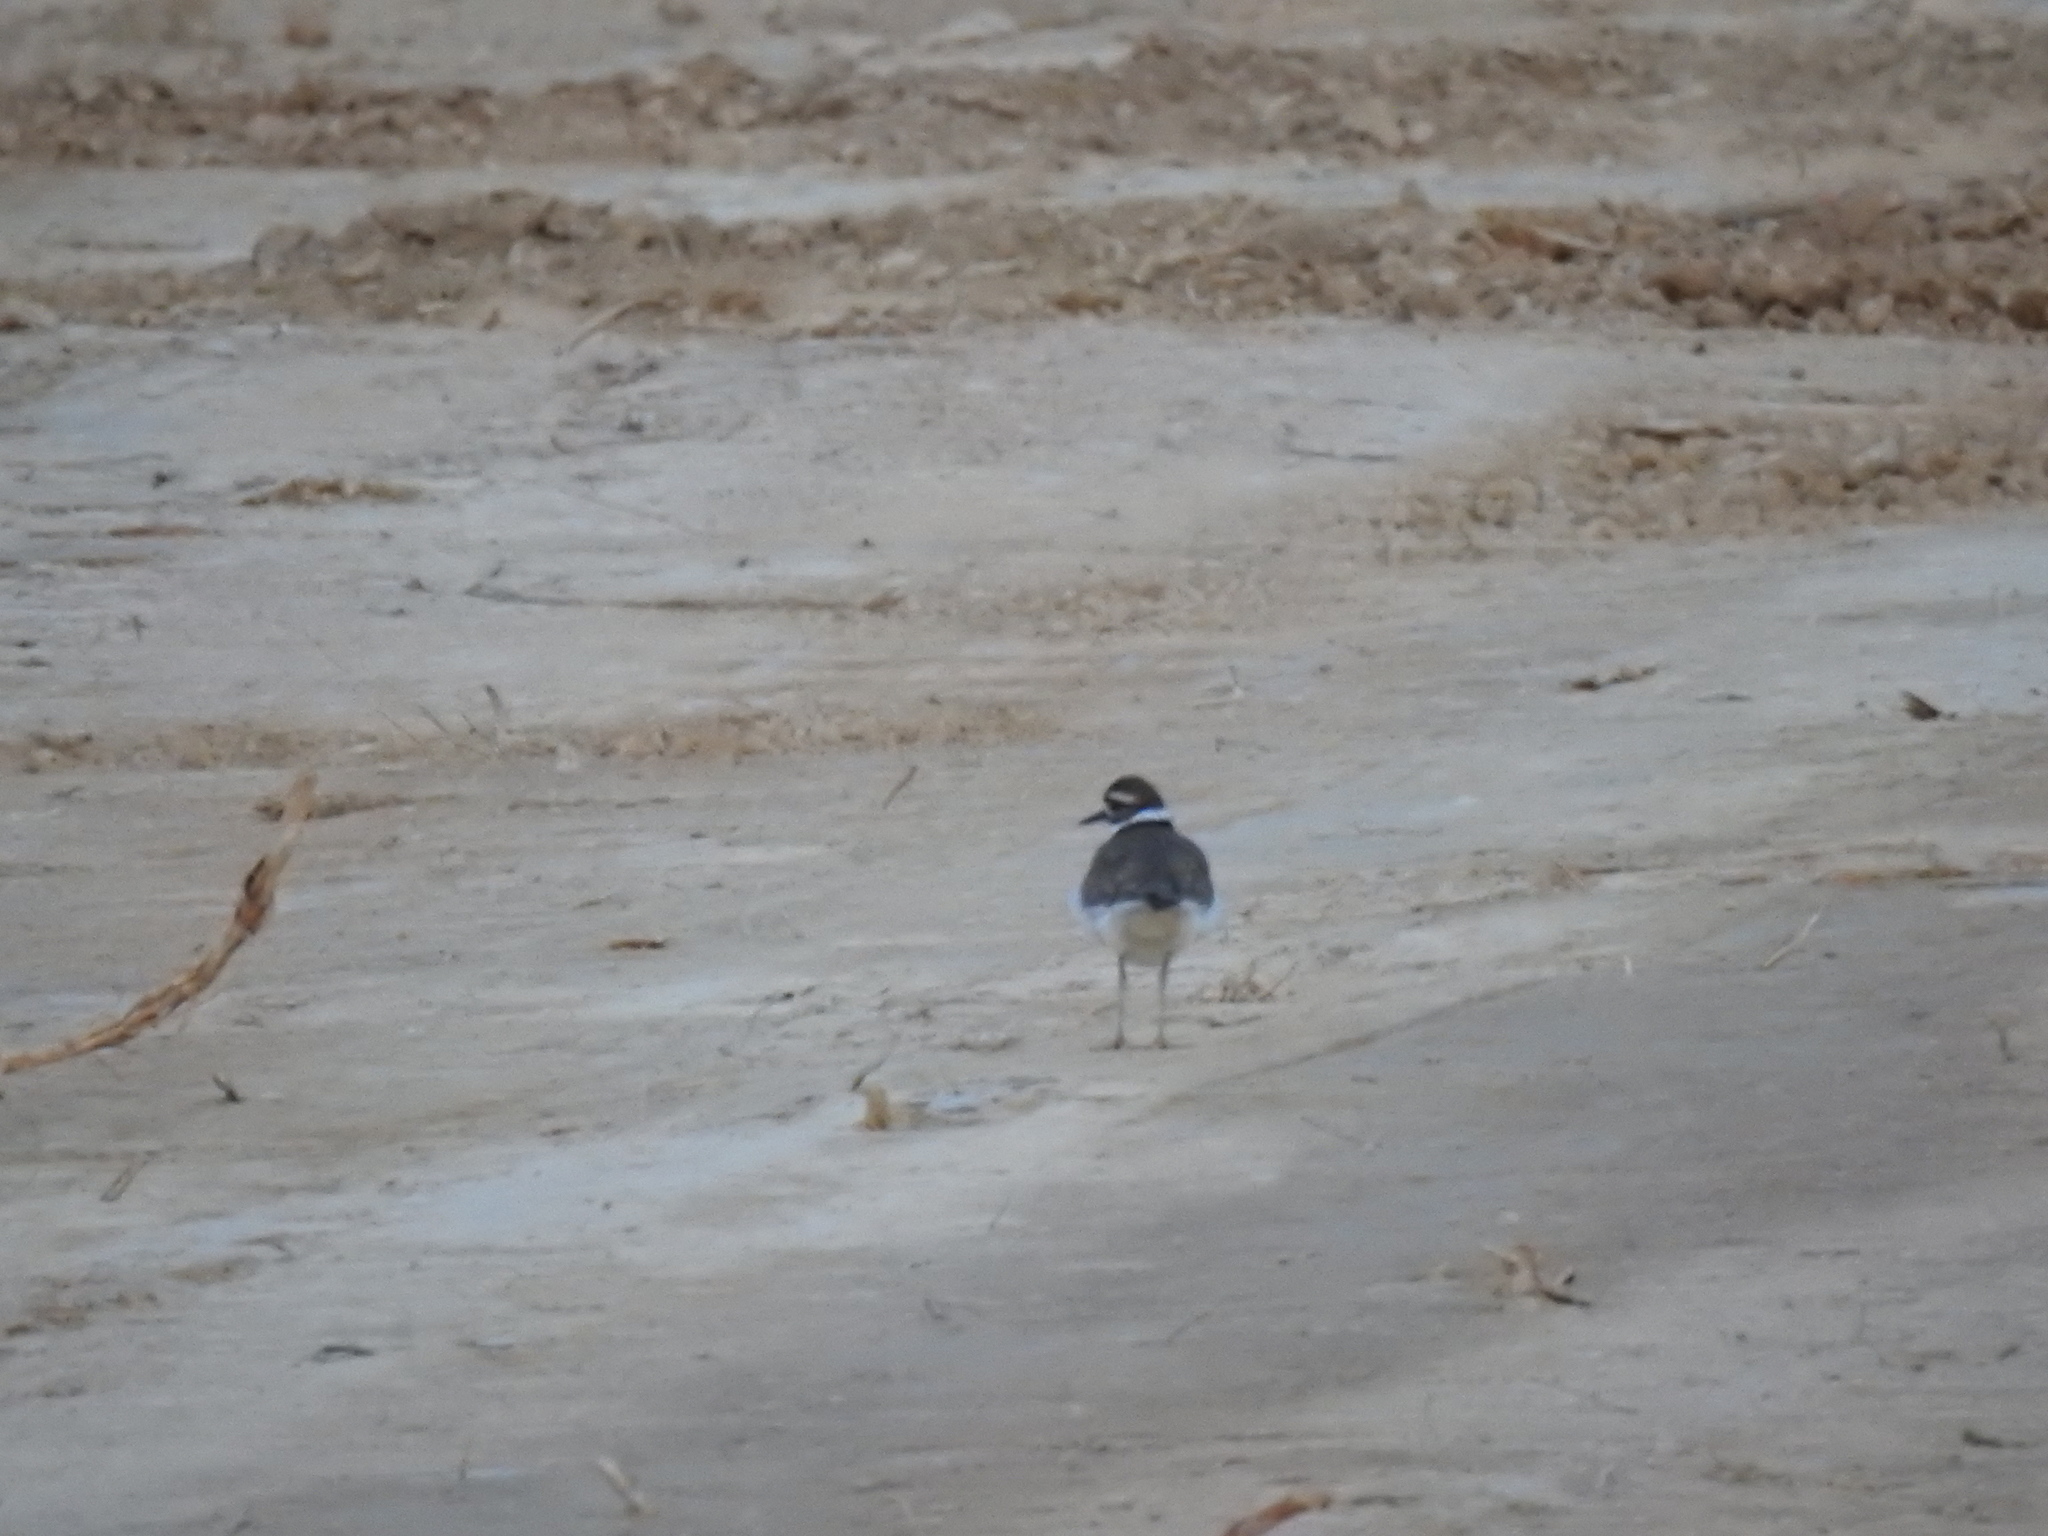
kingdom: Animalia
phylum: Chordata
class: Aves
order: Charadriiformes
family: Charadriidae
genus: Charadrius
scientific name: Charadrius vociferus
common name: Killdeer
